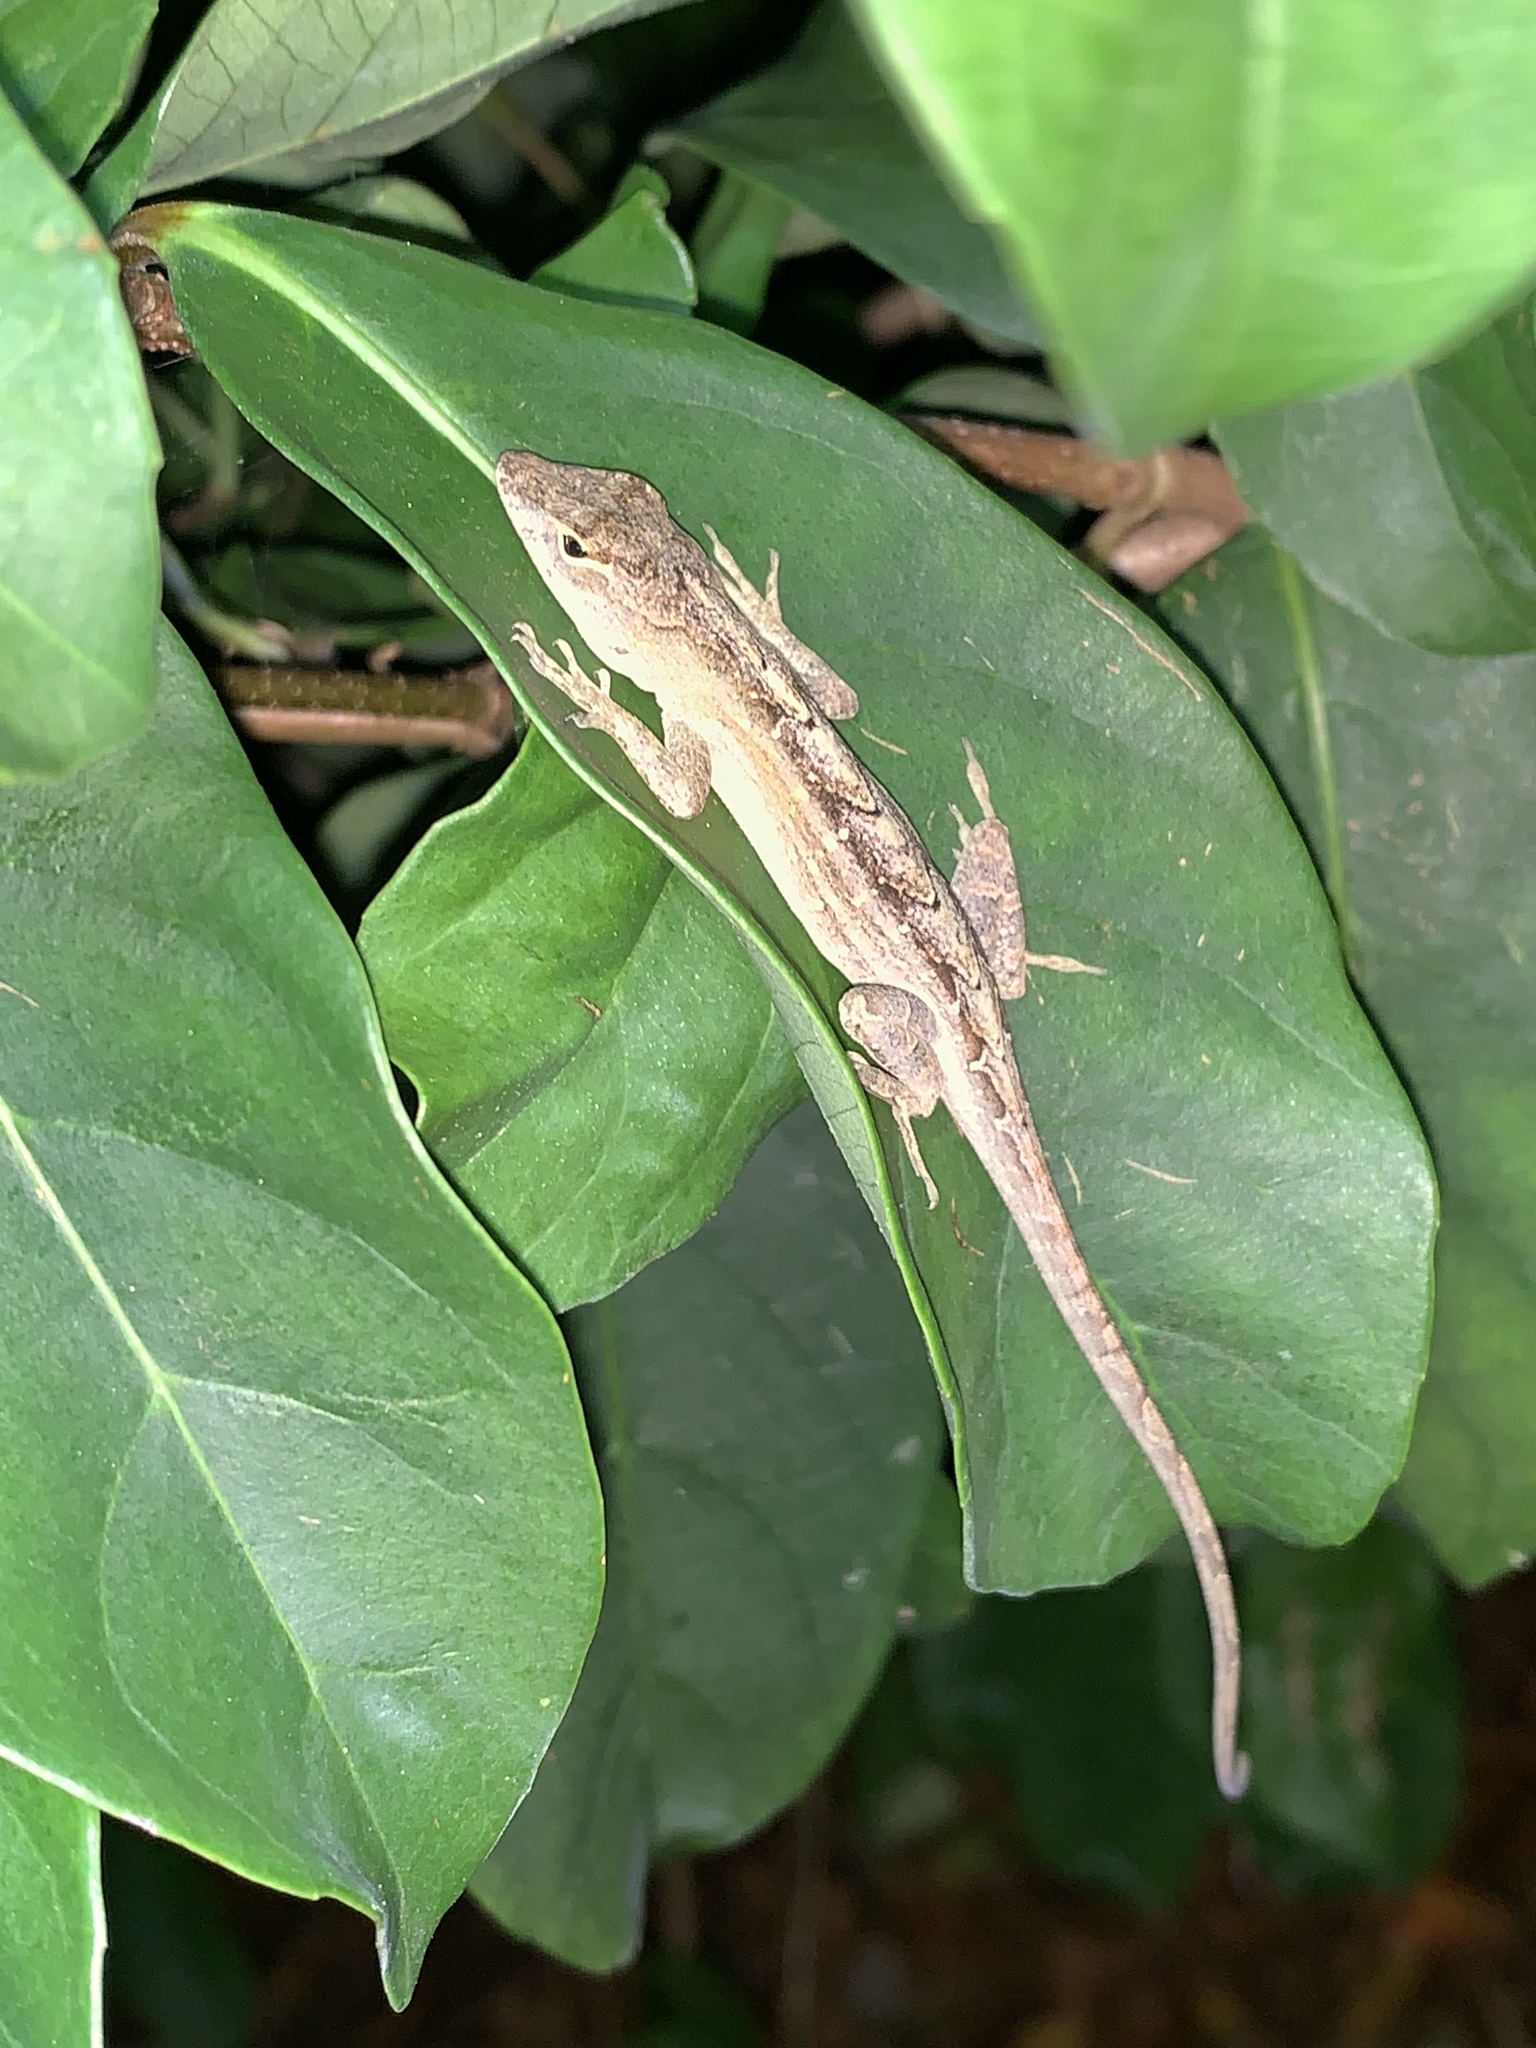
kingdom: Animalia
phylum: Chordata
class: Squamata
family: Dactyloidae
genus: Anolis
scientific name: Anolis sagrei
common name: Brown anole
